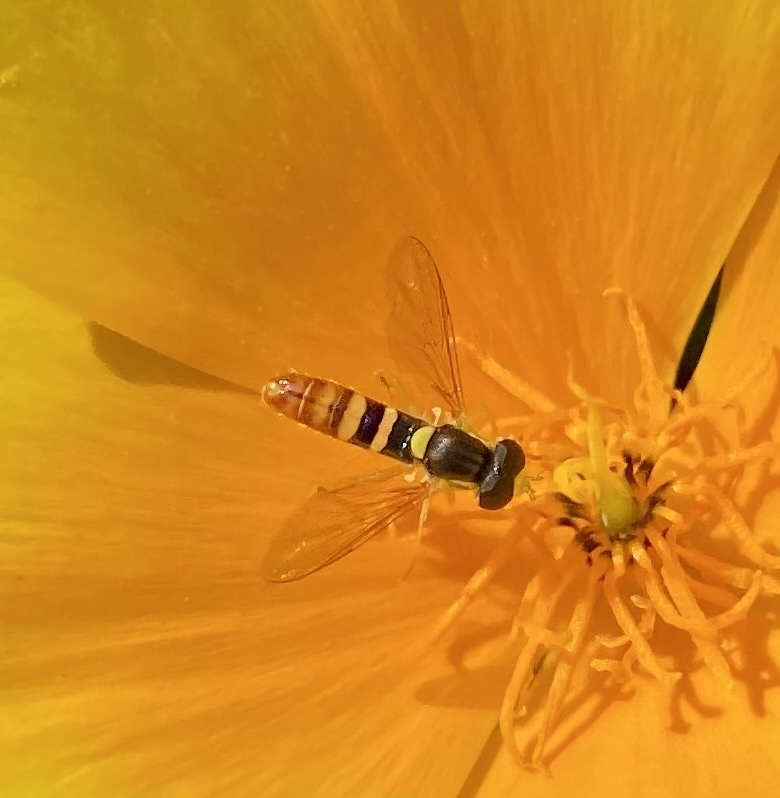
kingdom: Animalia
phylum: Arthropoda
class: Insecta
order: Diptera
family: Syrphidae
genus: Sphaerophoria
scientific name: Sphaerophoria sulphuripes
